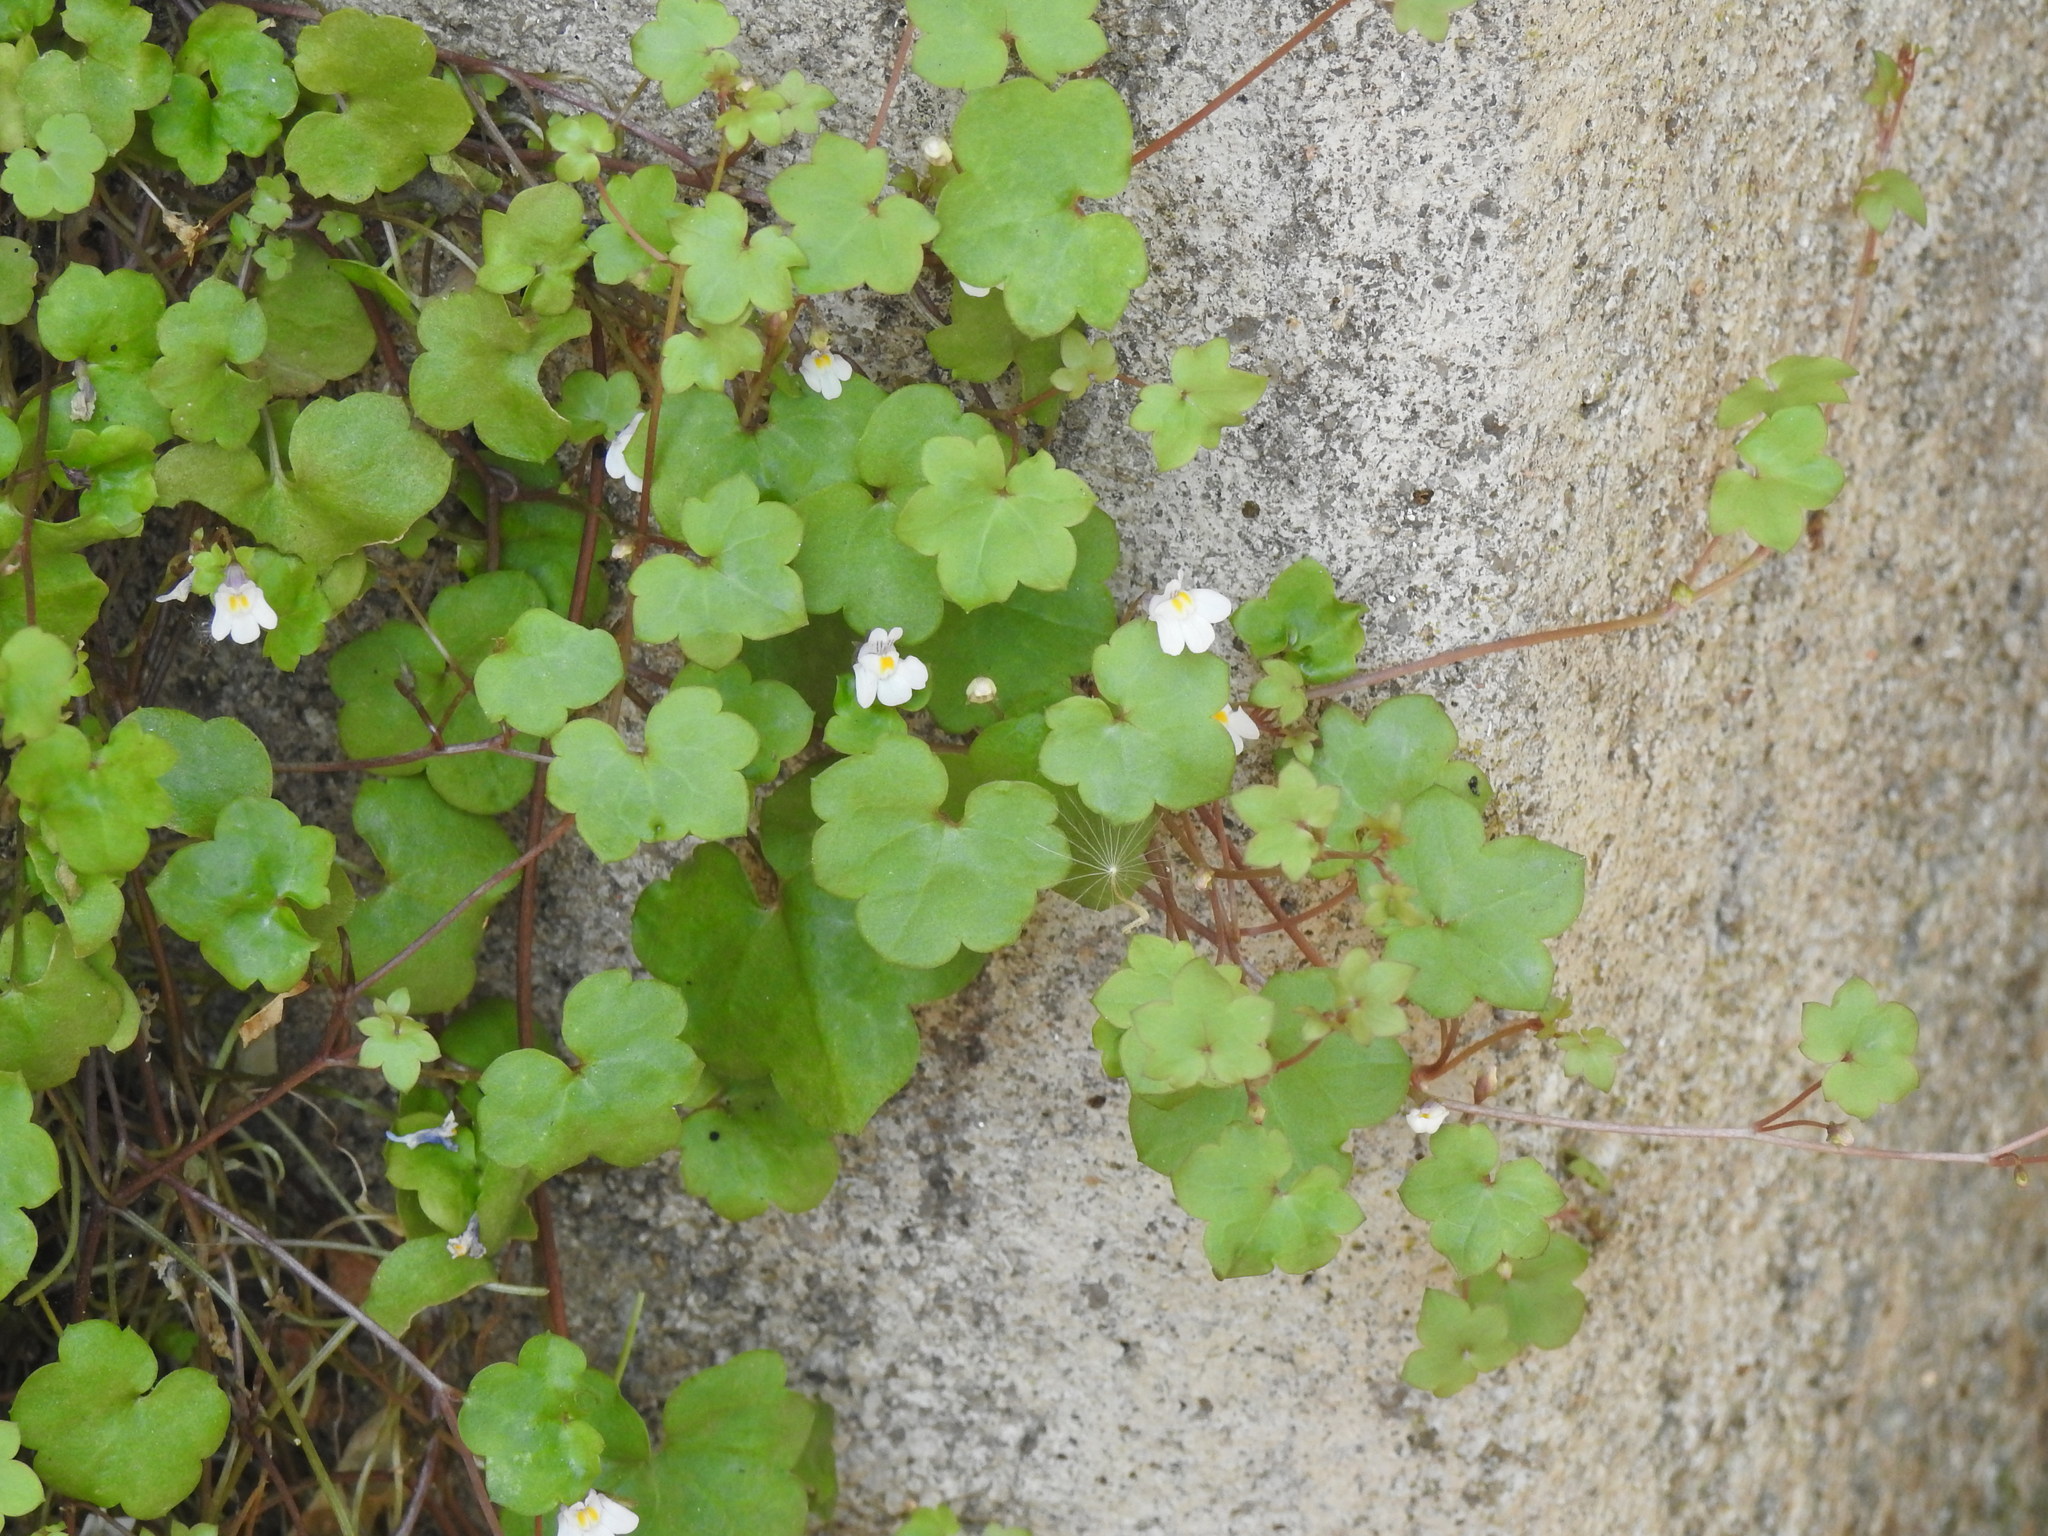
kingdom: Plantae
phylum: Tracheophyta
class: Magnoliopsida
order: Lamiales
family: Plantaginaceae
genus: Cymbalaria
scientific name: Cymbalaria muralis
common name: Ivy-leaved toadflax
